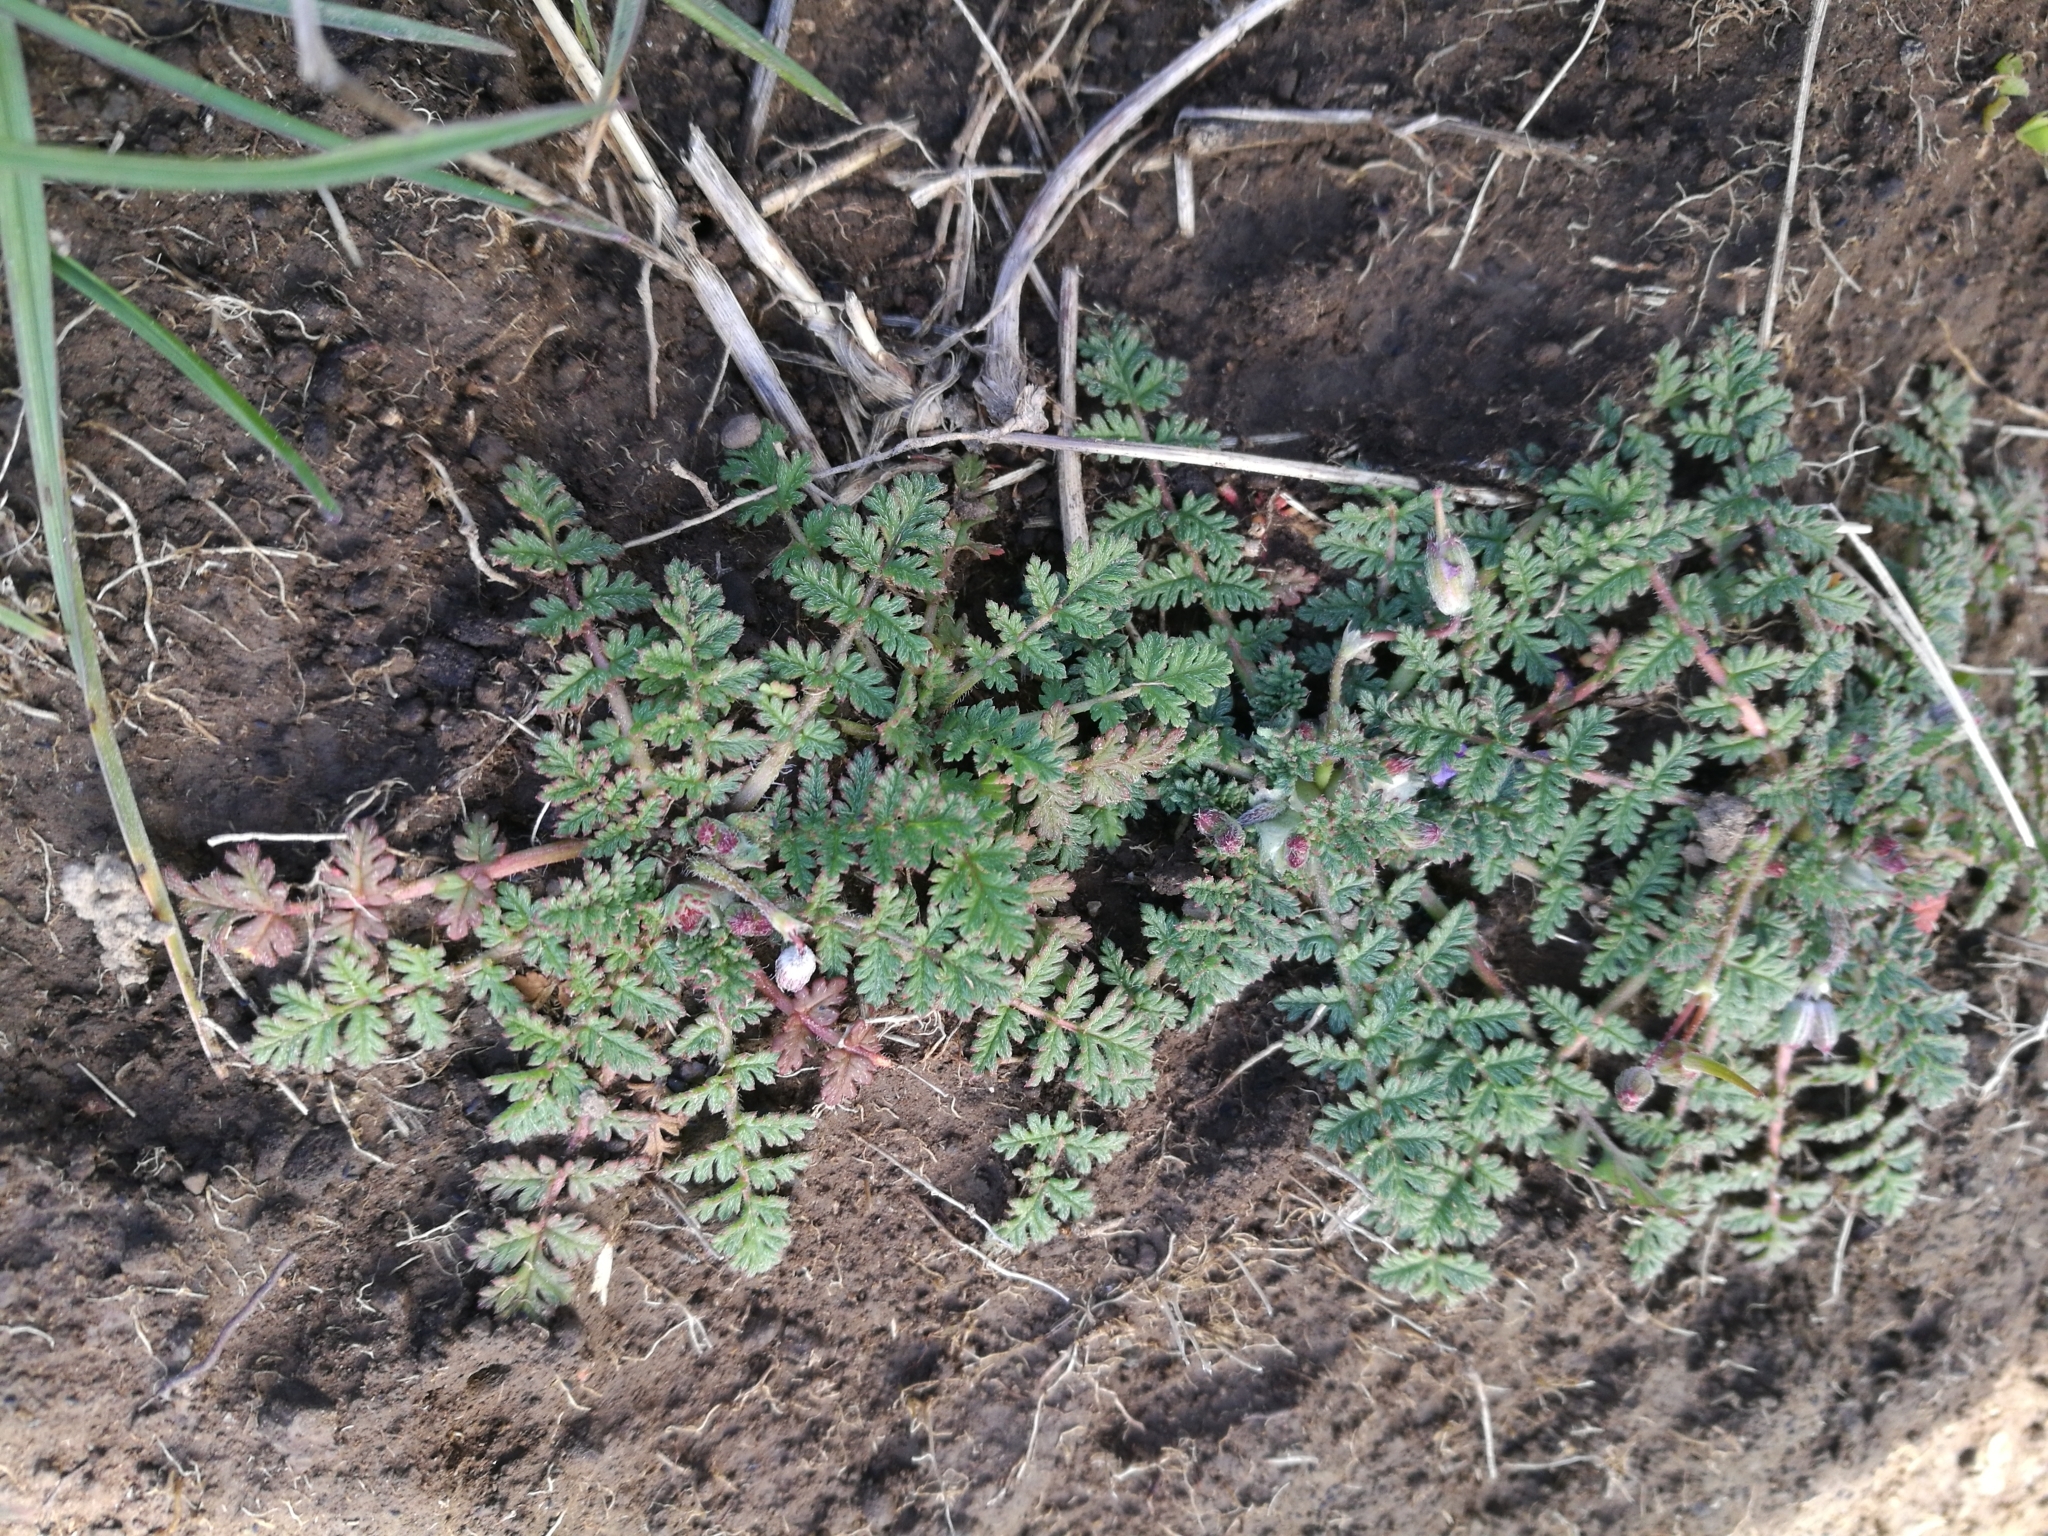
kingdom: Plantae
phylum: Tracheophyta
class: Magnoliopsida
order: Geraniales
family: Geraniaceae
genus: Erodium
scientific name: Erodium cicutarium
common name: Common stork's-bill
